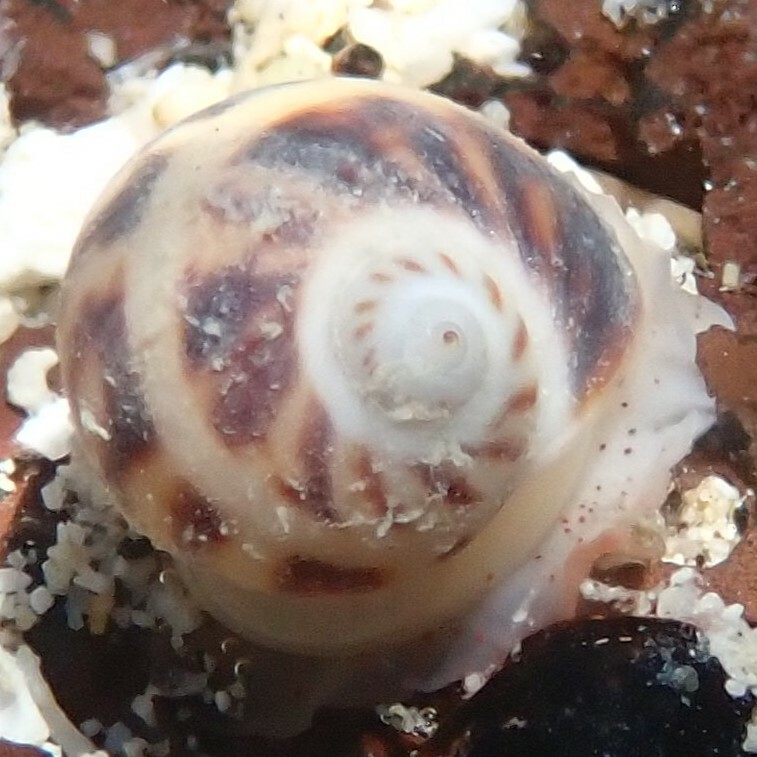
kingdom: Animalia
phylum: Mollusca
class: Gastropoda
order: Littorinimorpha
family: Naticidae
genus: Notocochlis
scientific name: Notocochlis gualteriana
